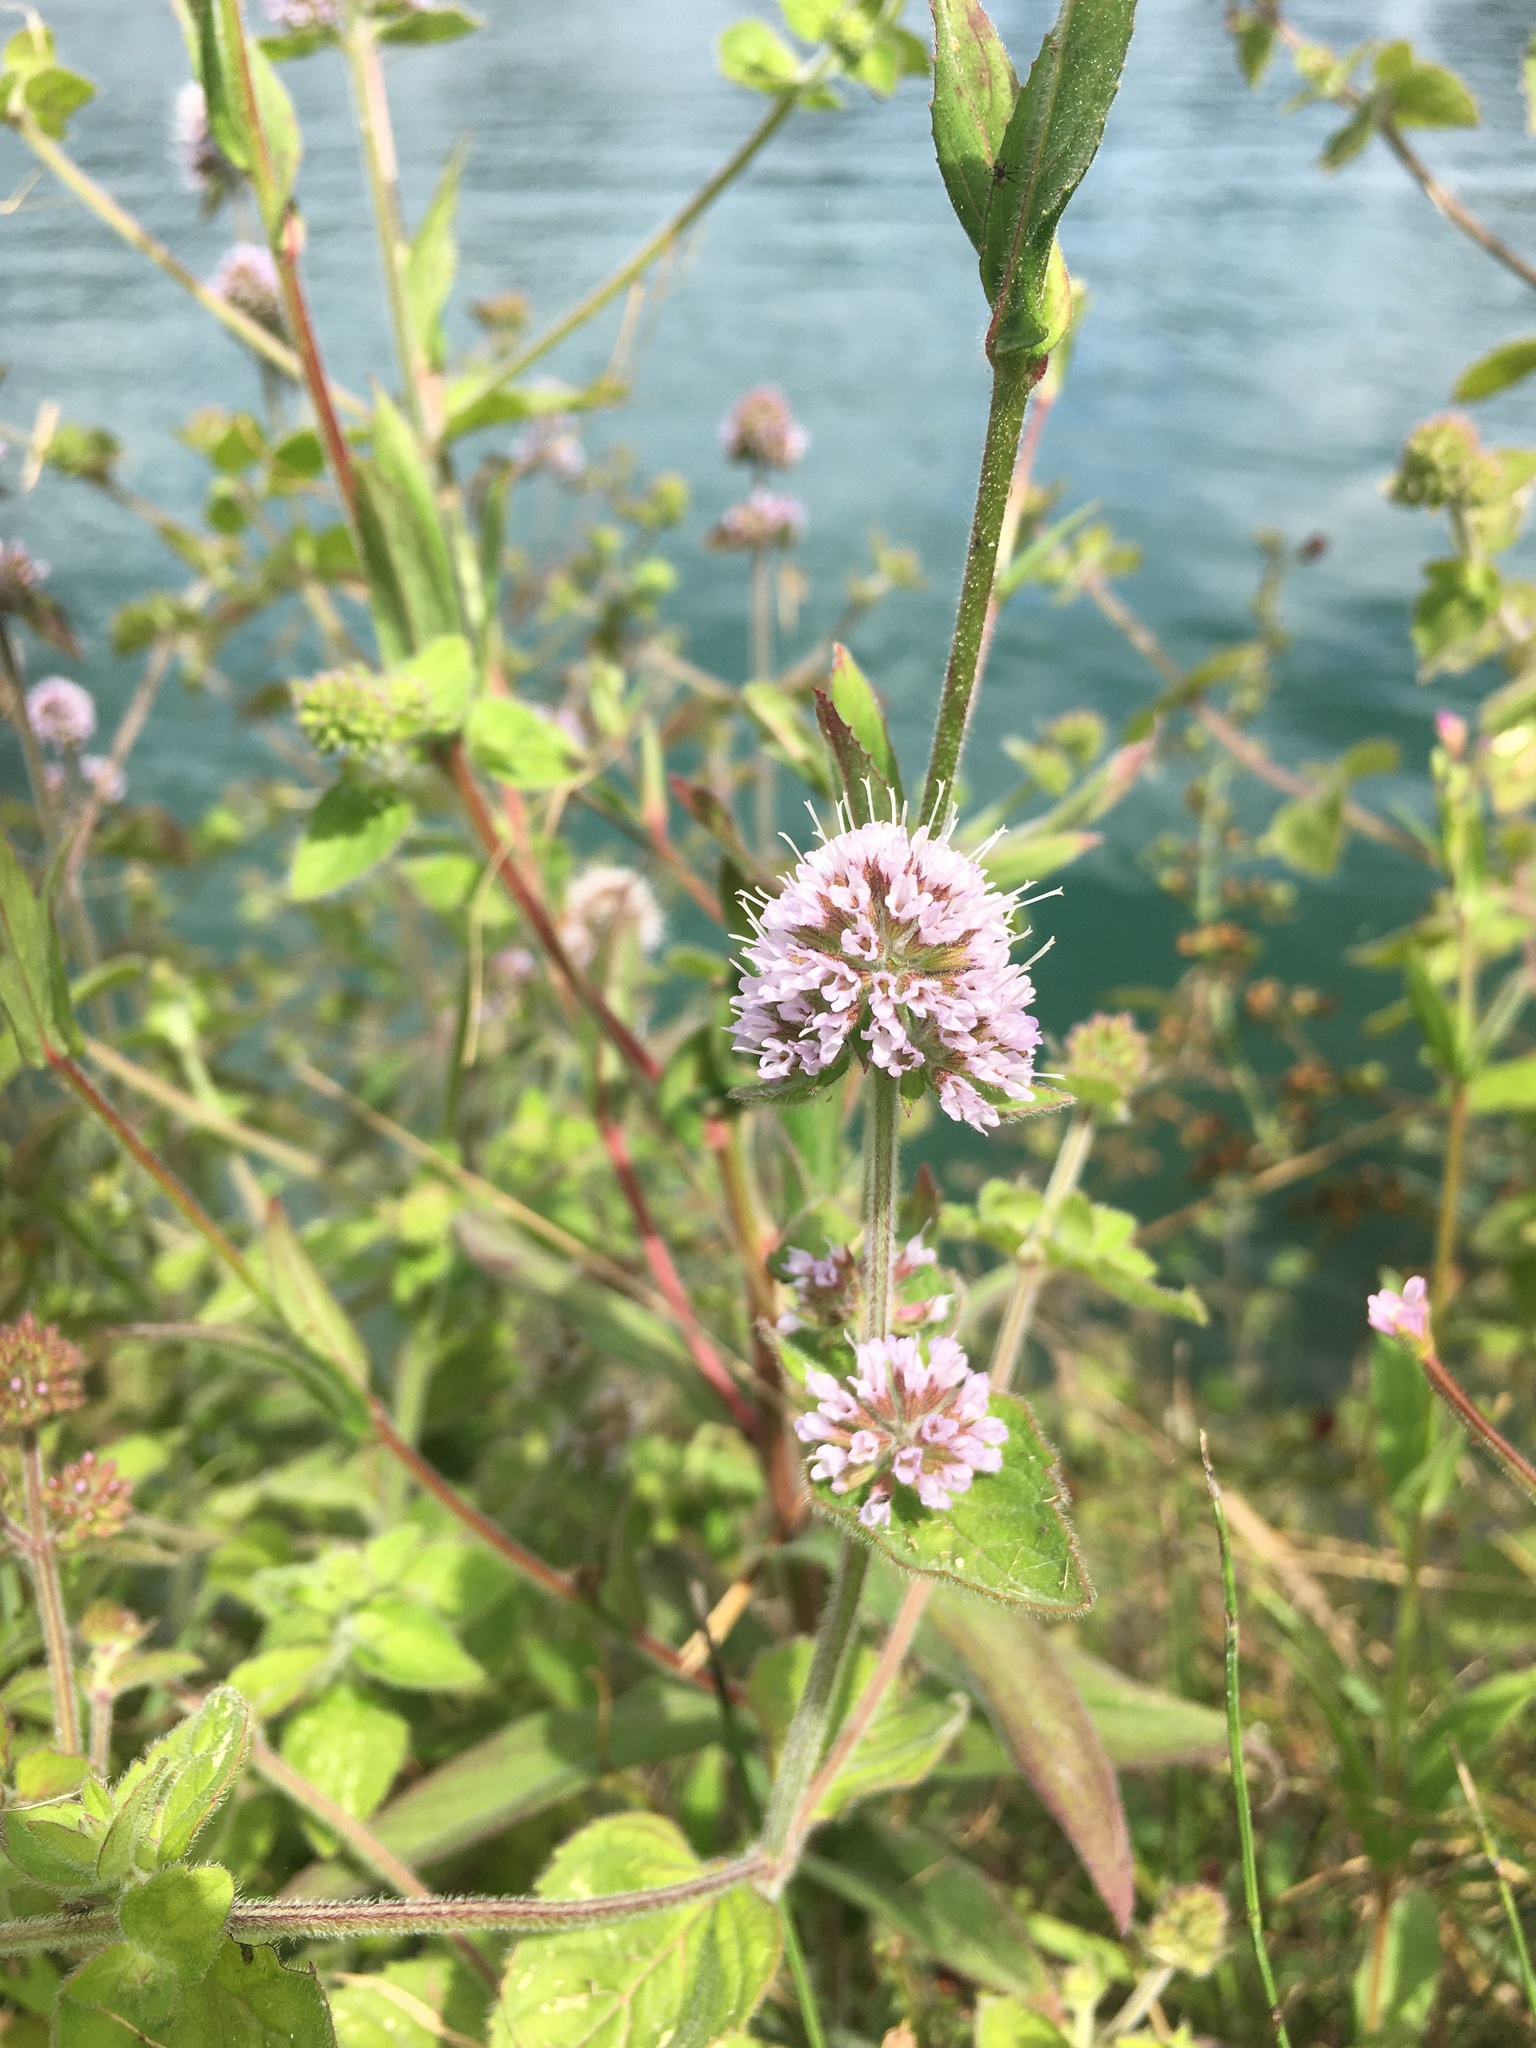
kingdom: Plantae
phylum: Tracheophyta
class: Magnoliopsida
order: Lamiales
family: Lamiaceae
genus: Mentha
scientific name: Mentha aquatica
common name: Water mint
